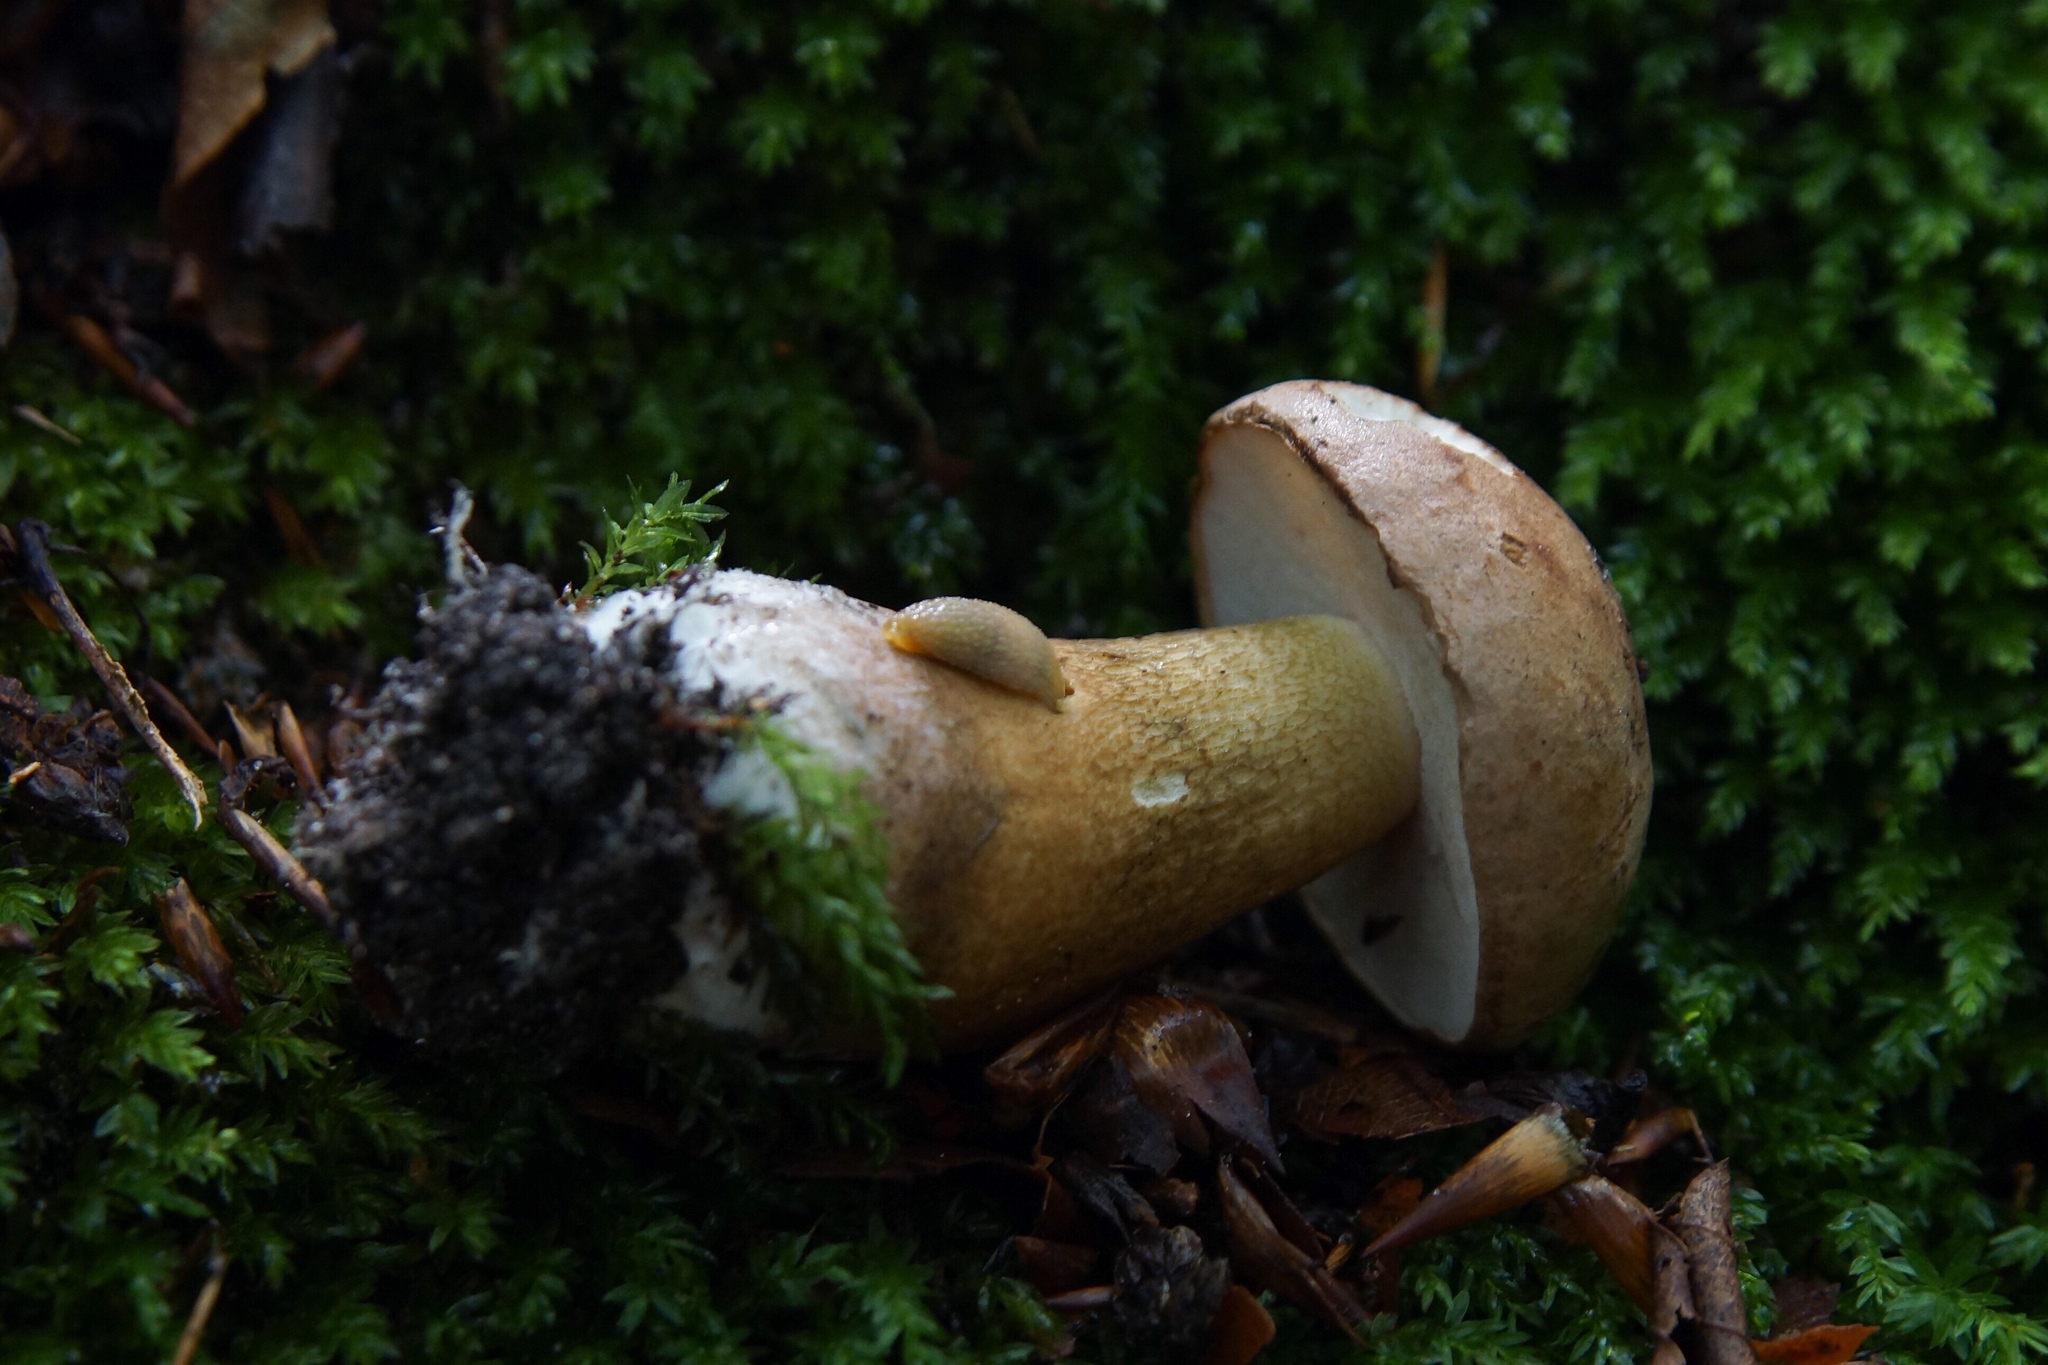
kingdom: Fungi
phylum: Basidiomycota
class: Agaricomycetes
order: Boletales
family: Boletaceae
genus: Tylopilus
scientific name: Tylopilus felleus
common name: Bitter bolete
